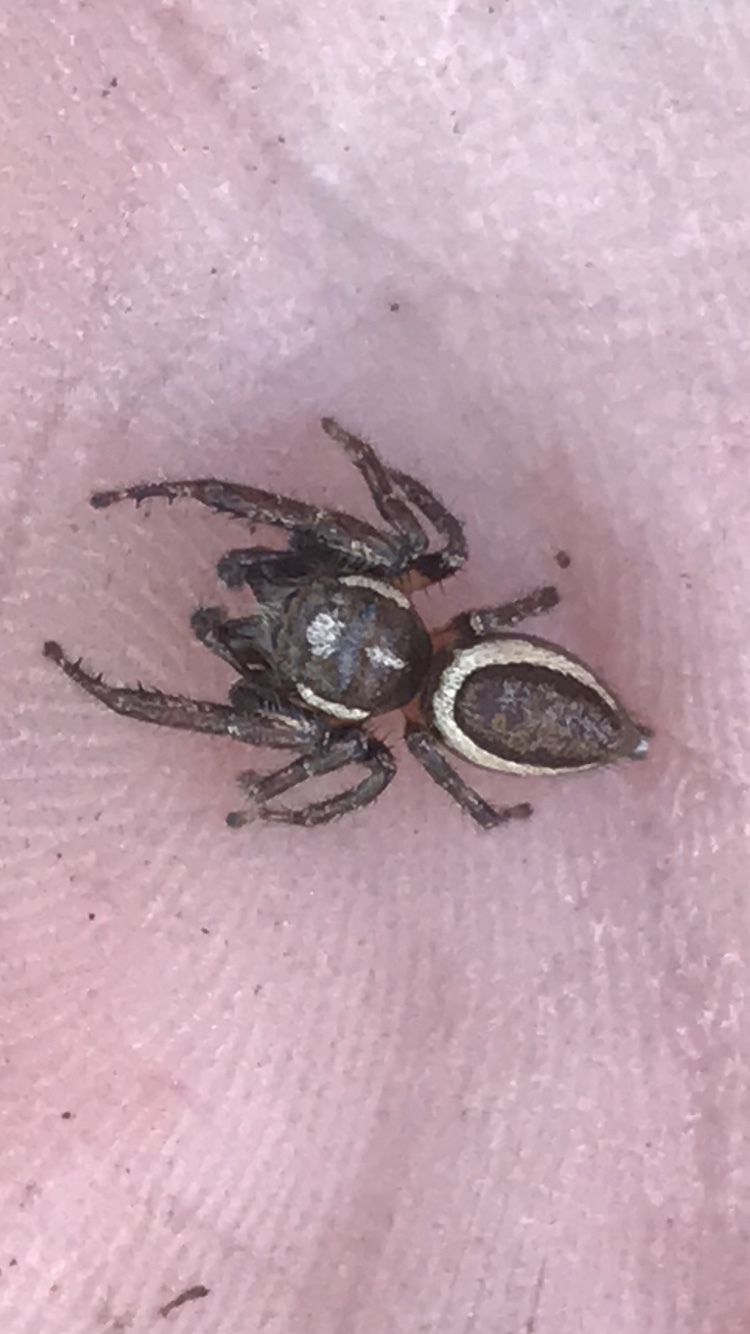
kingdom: Animalia
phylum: Arthropoda
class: Arachnida
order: Araneae
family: Salticidae
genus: Eris
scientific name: Eris militaris
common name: Bronze jumper
